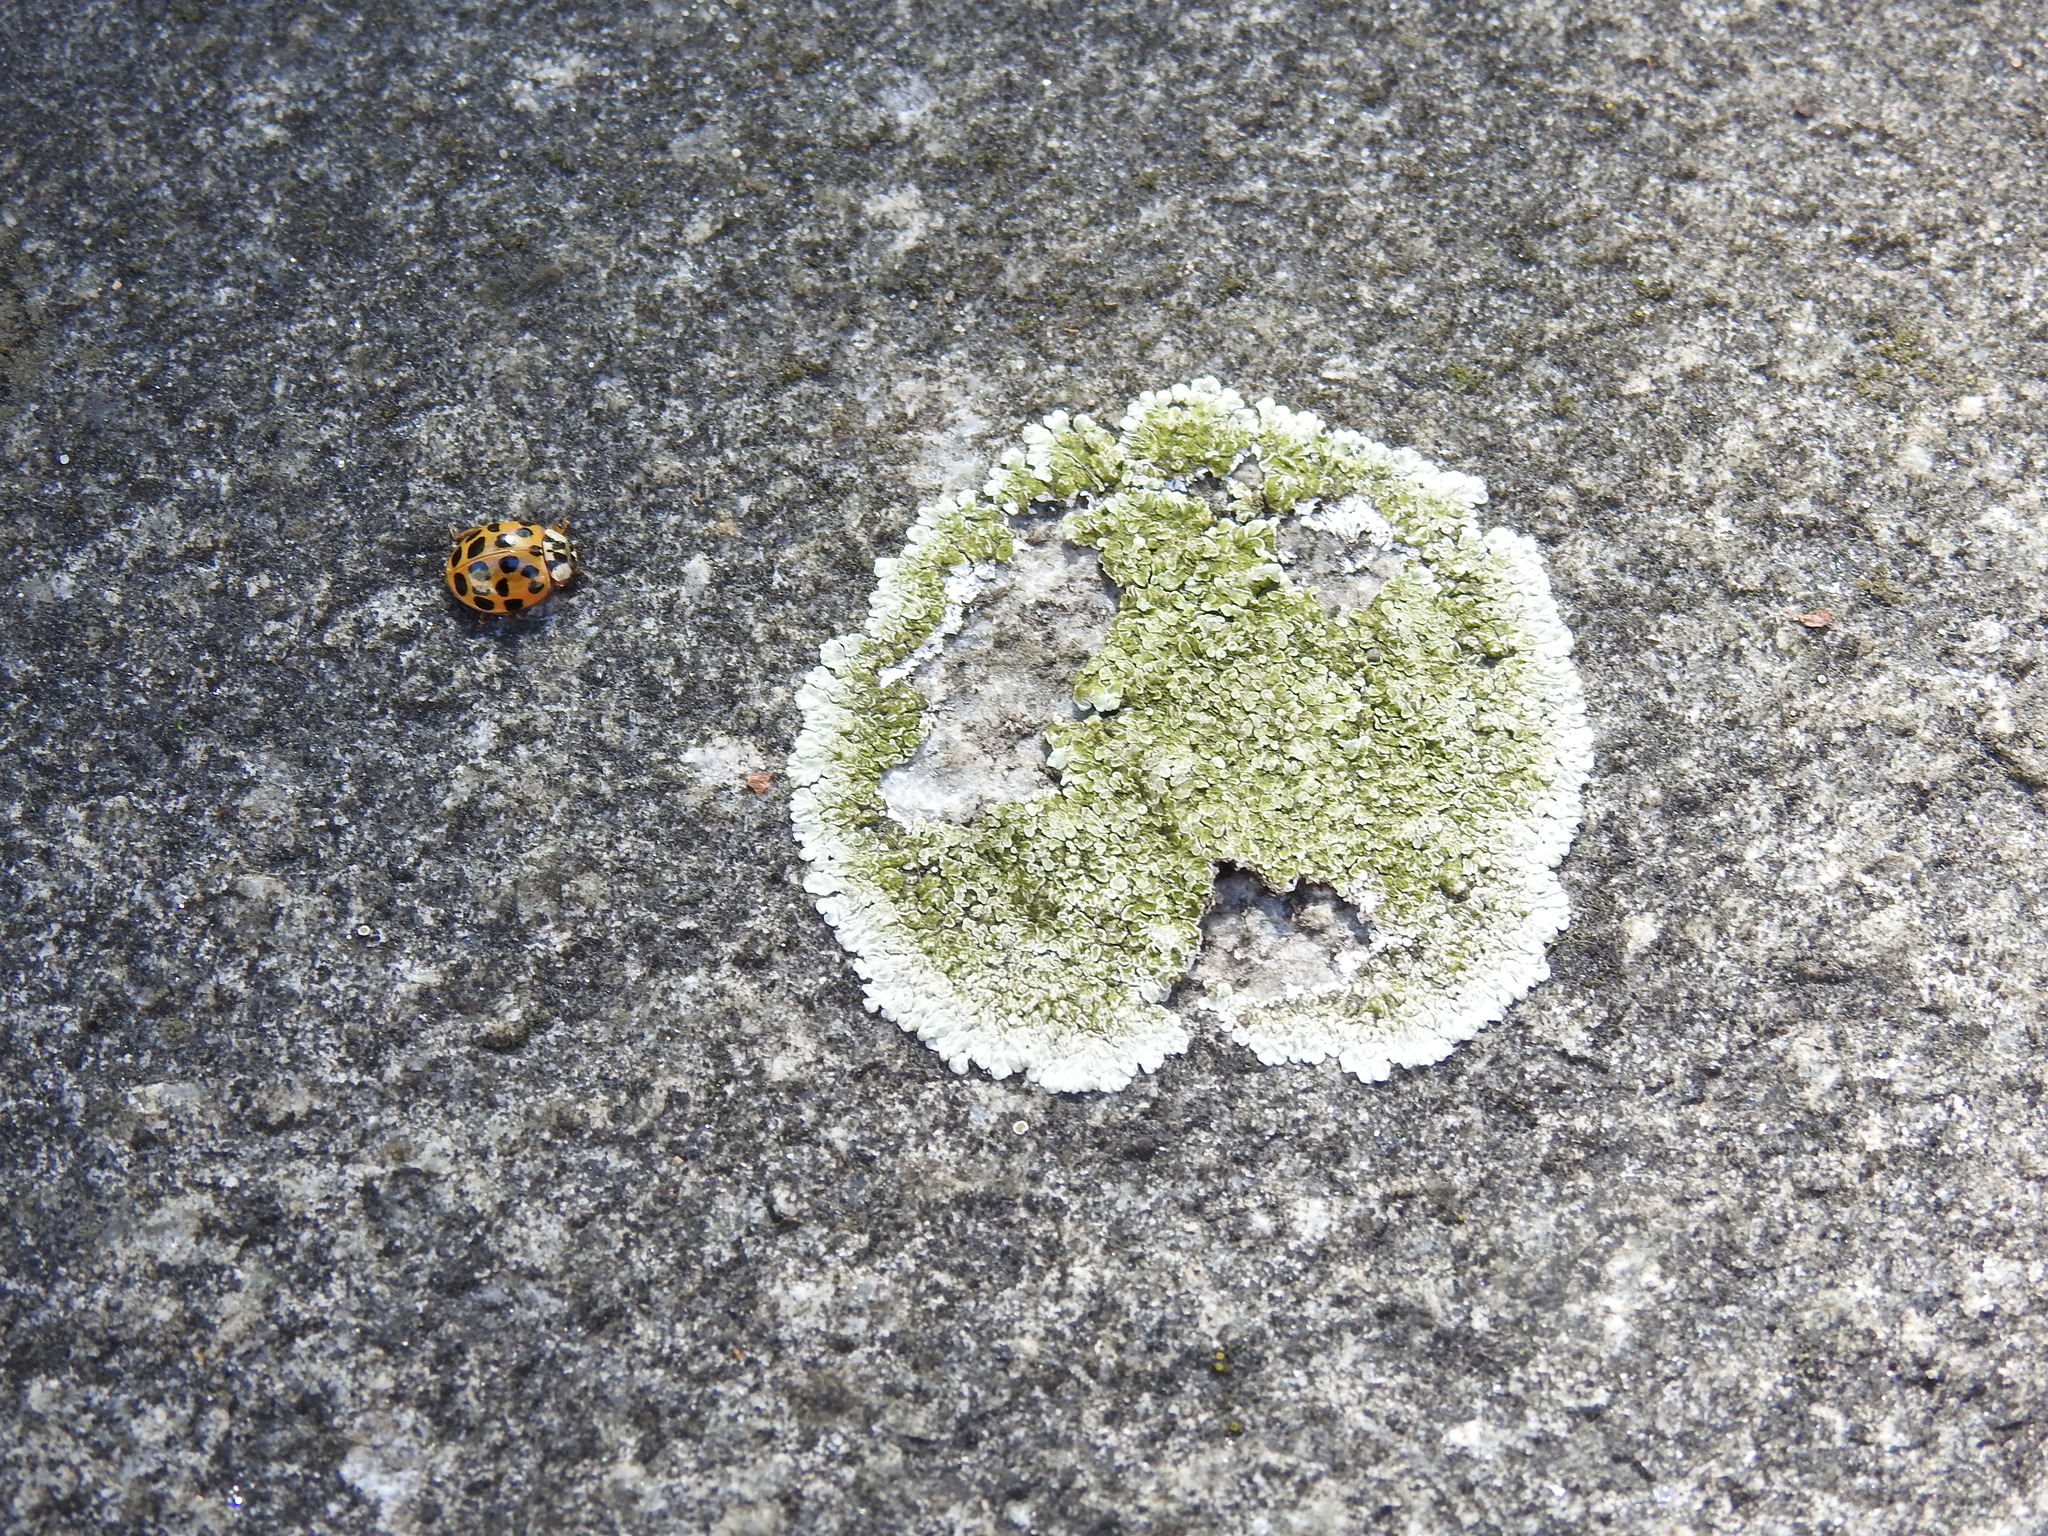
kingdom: Fungi
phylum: Ascomycota
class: Lecanoromycetes
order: Lecanorales
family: Lecanoraceae
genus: Protoparmeliopsis
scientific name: Protoparmeliopsis muralis
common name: Stonewall rim lichen
